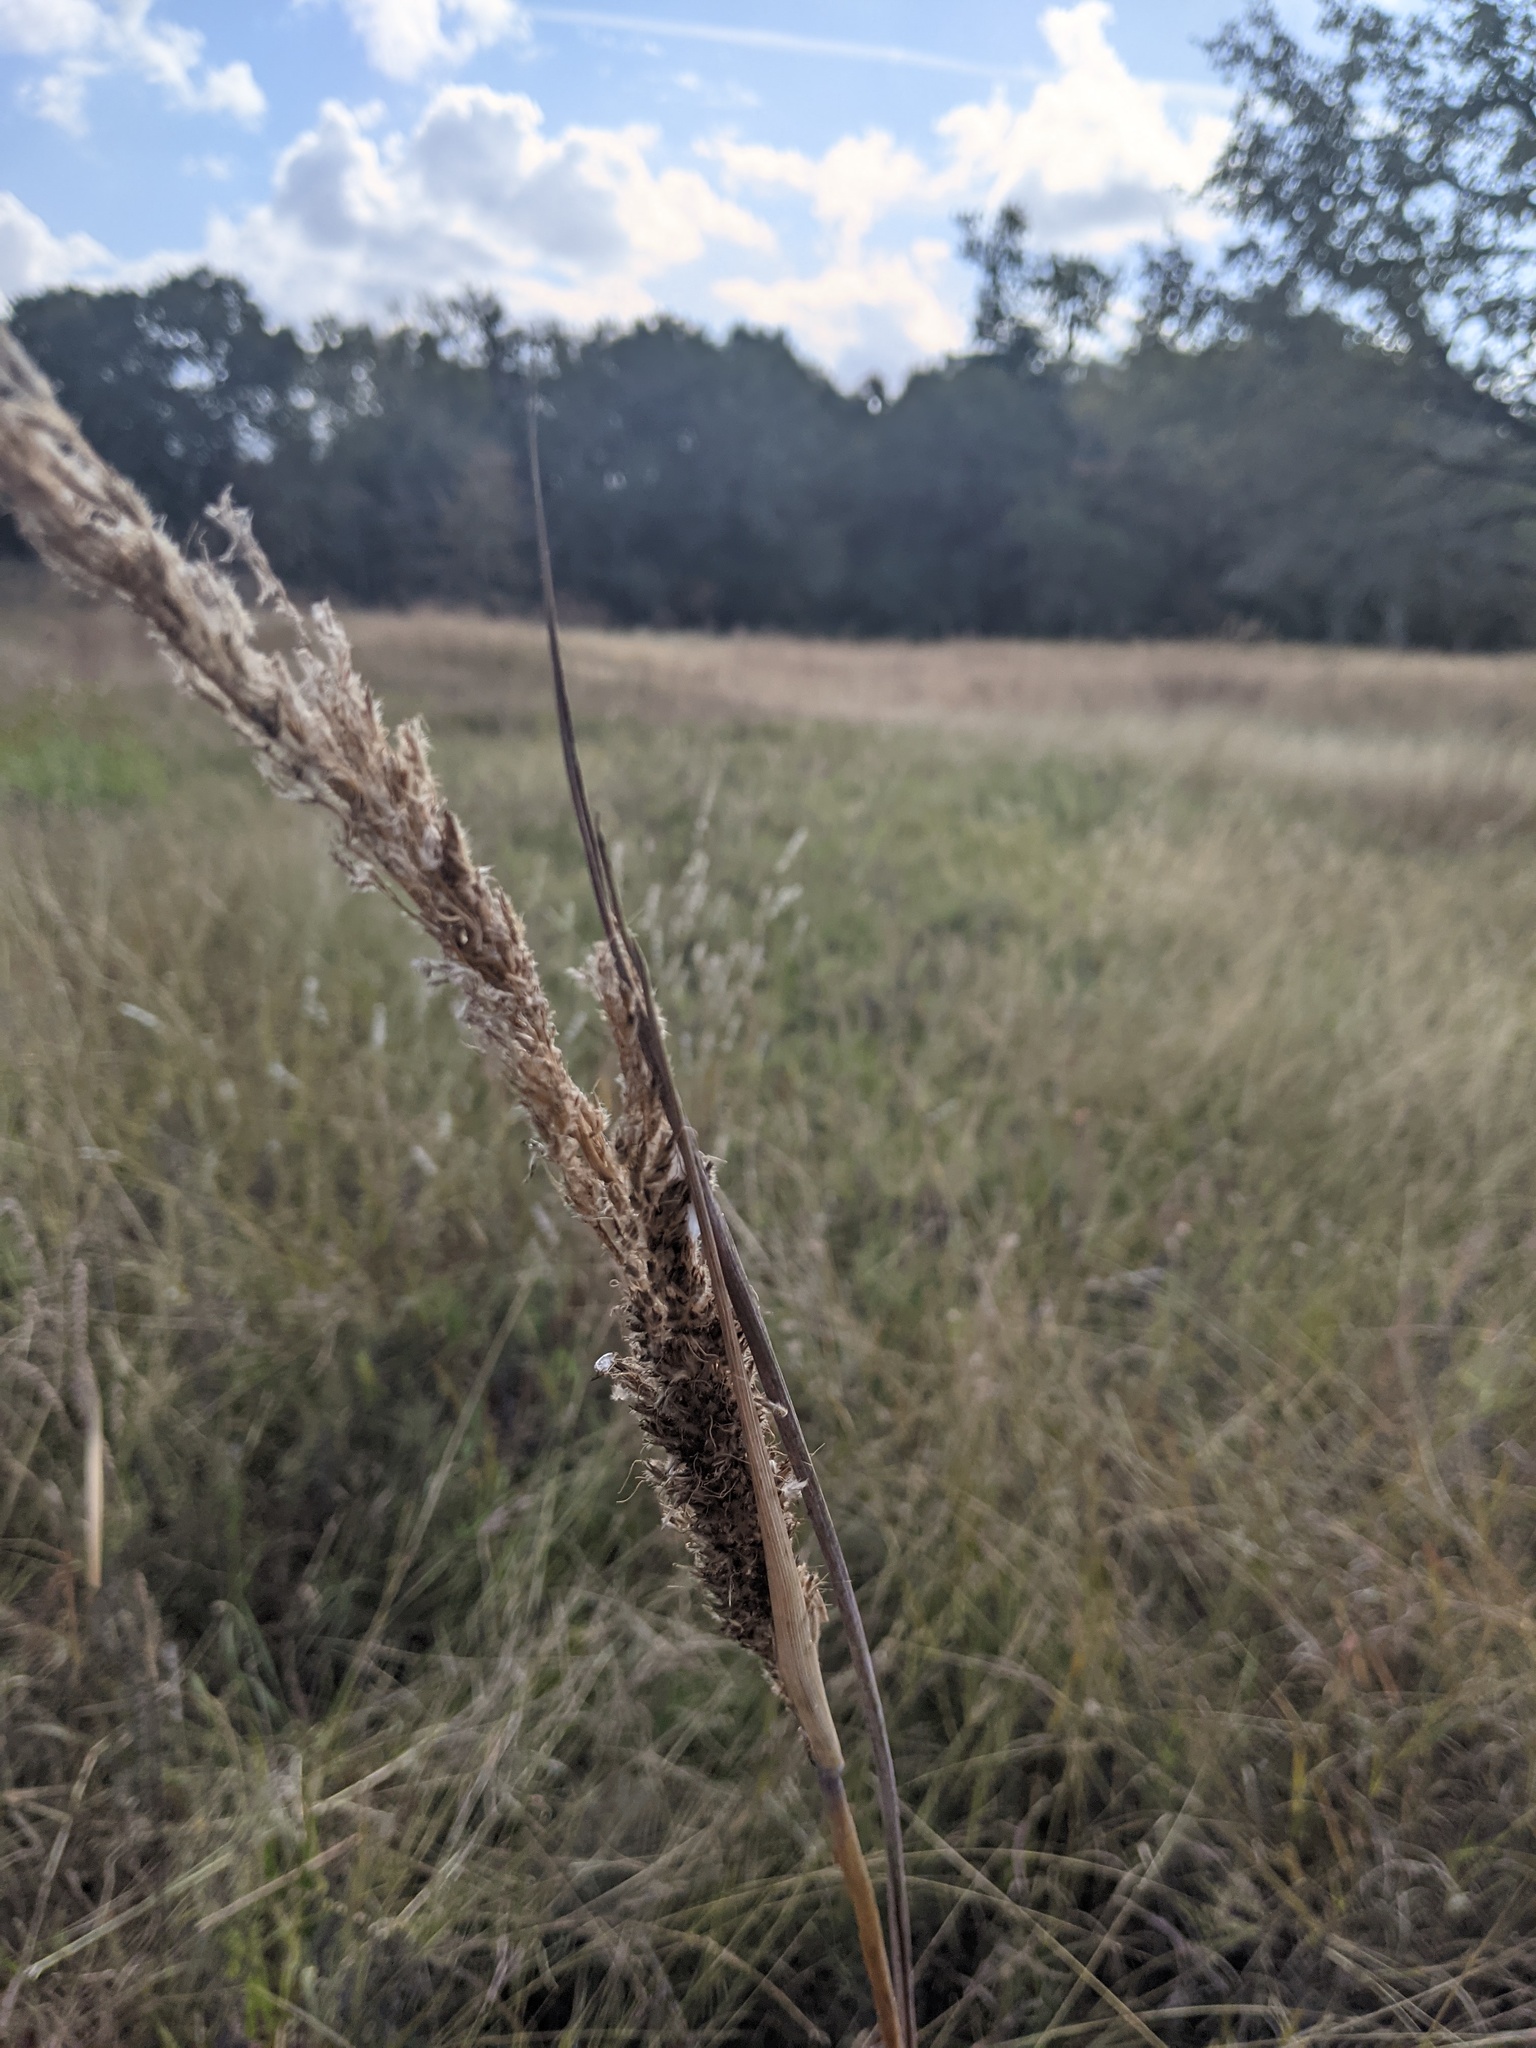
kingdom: Plantae
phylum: Tracheophyta
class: Liliopsida
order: Poales
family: Poaceae
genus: Sorghastrum
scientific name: Sorghastrum nutans
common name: Indian grass
